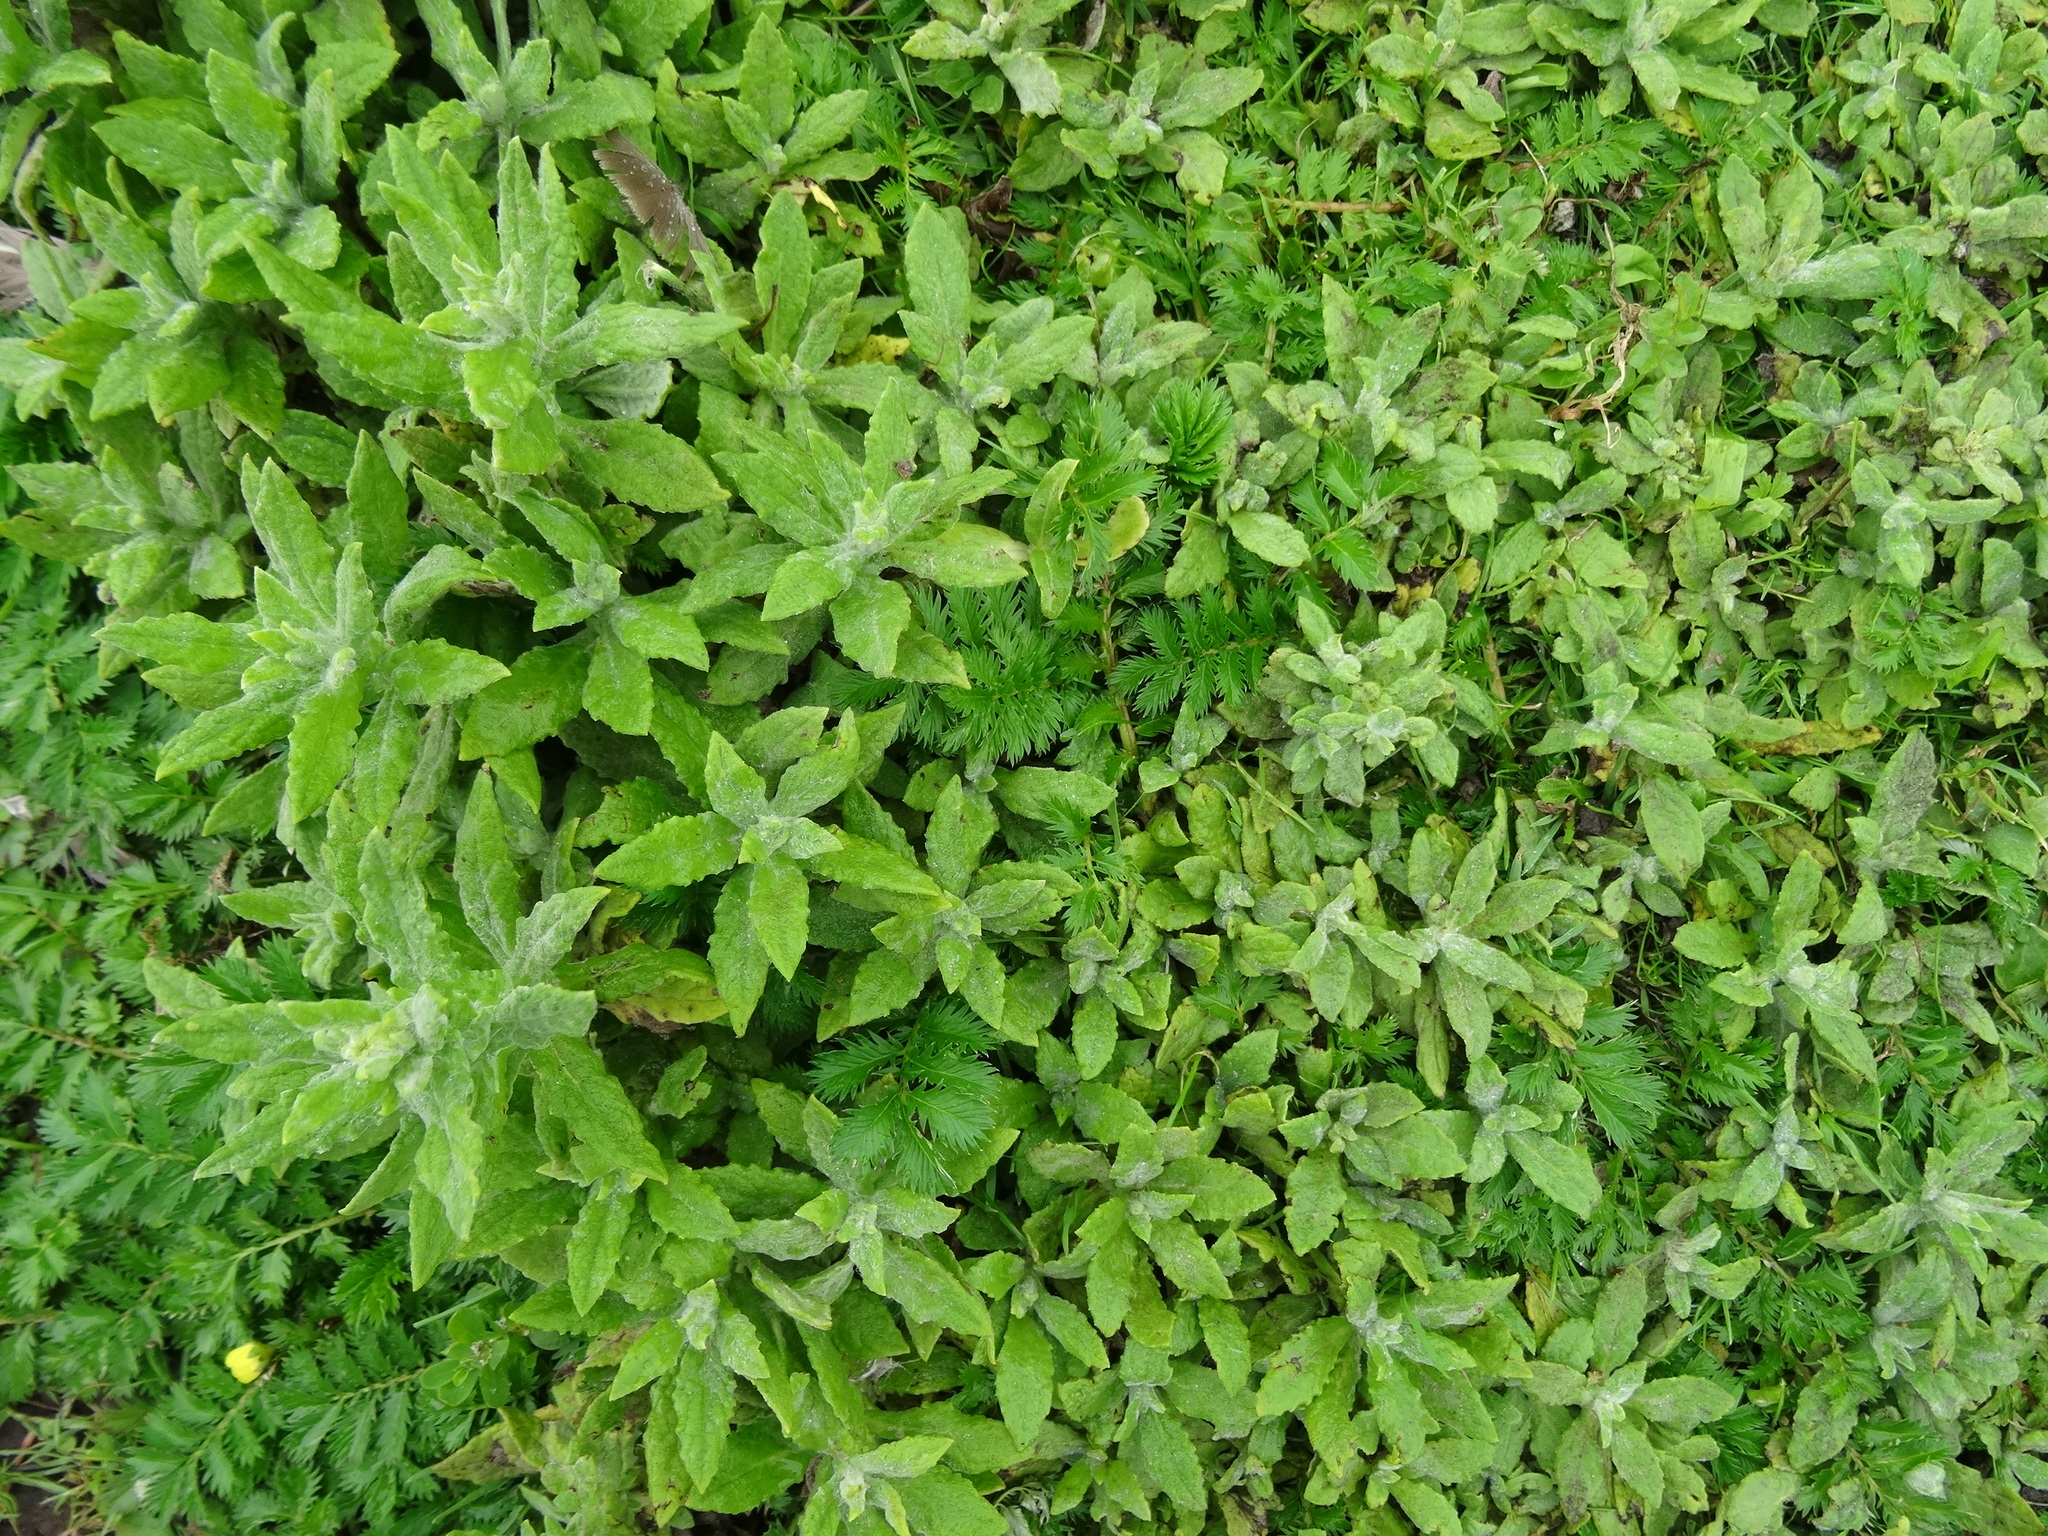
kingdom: Plantae
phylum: Tracheophyta
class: Magnoliopsida
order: Asterales
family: Asteraceae
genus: Pulicaria
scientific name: Pulicaria dysenterica
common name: Common fleabane
